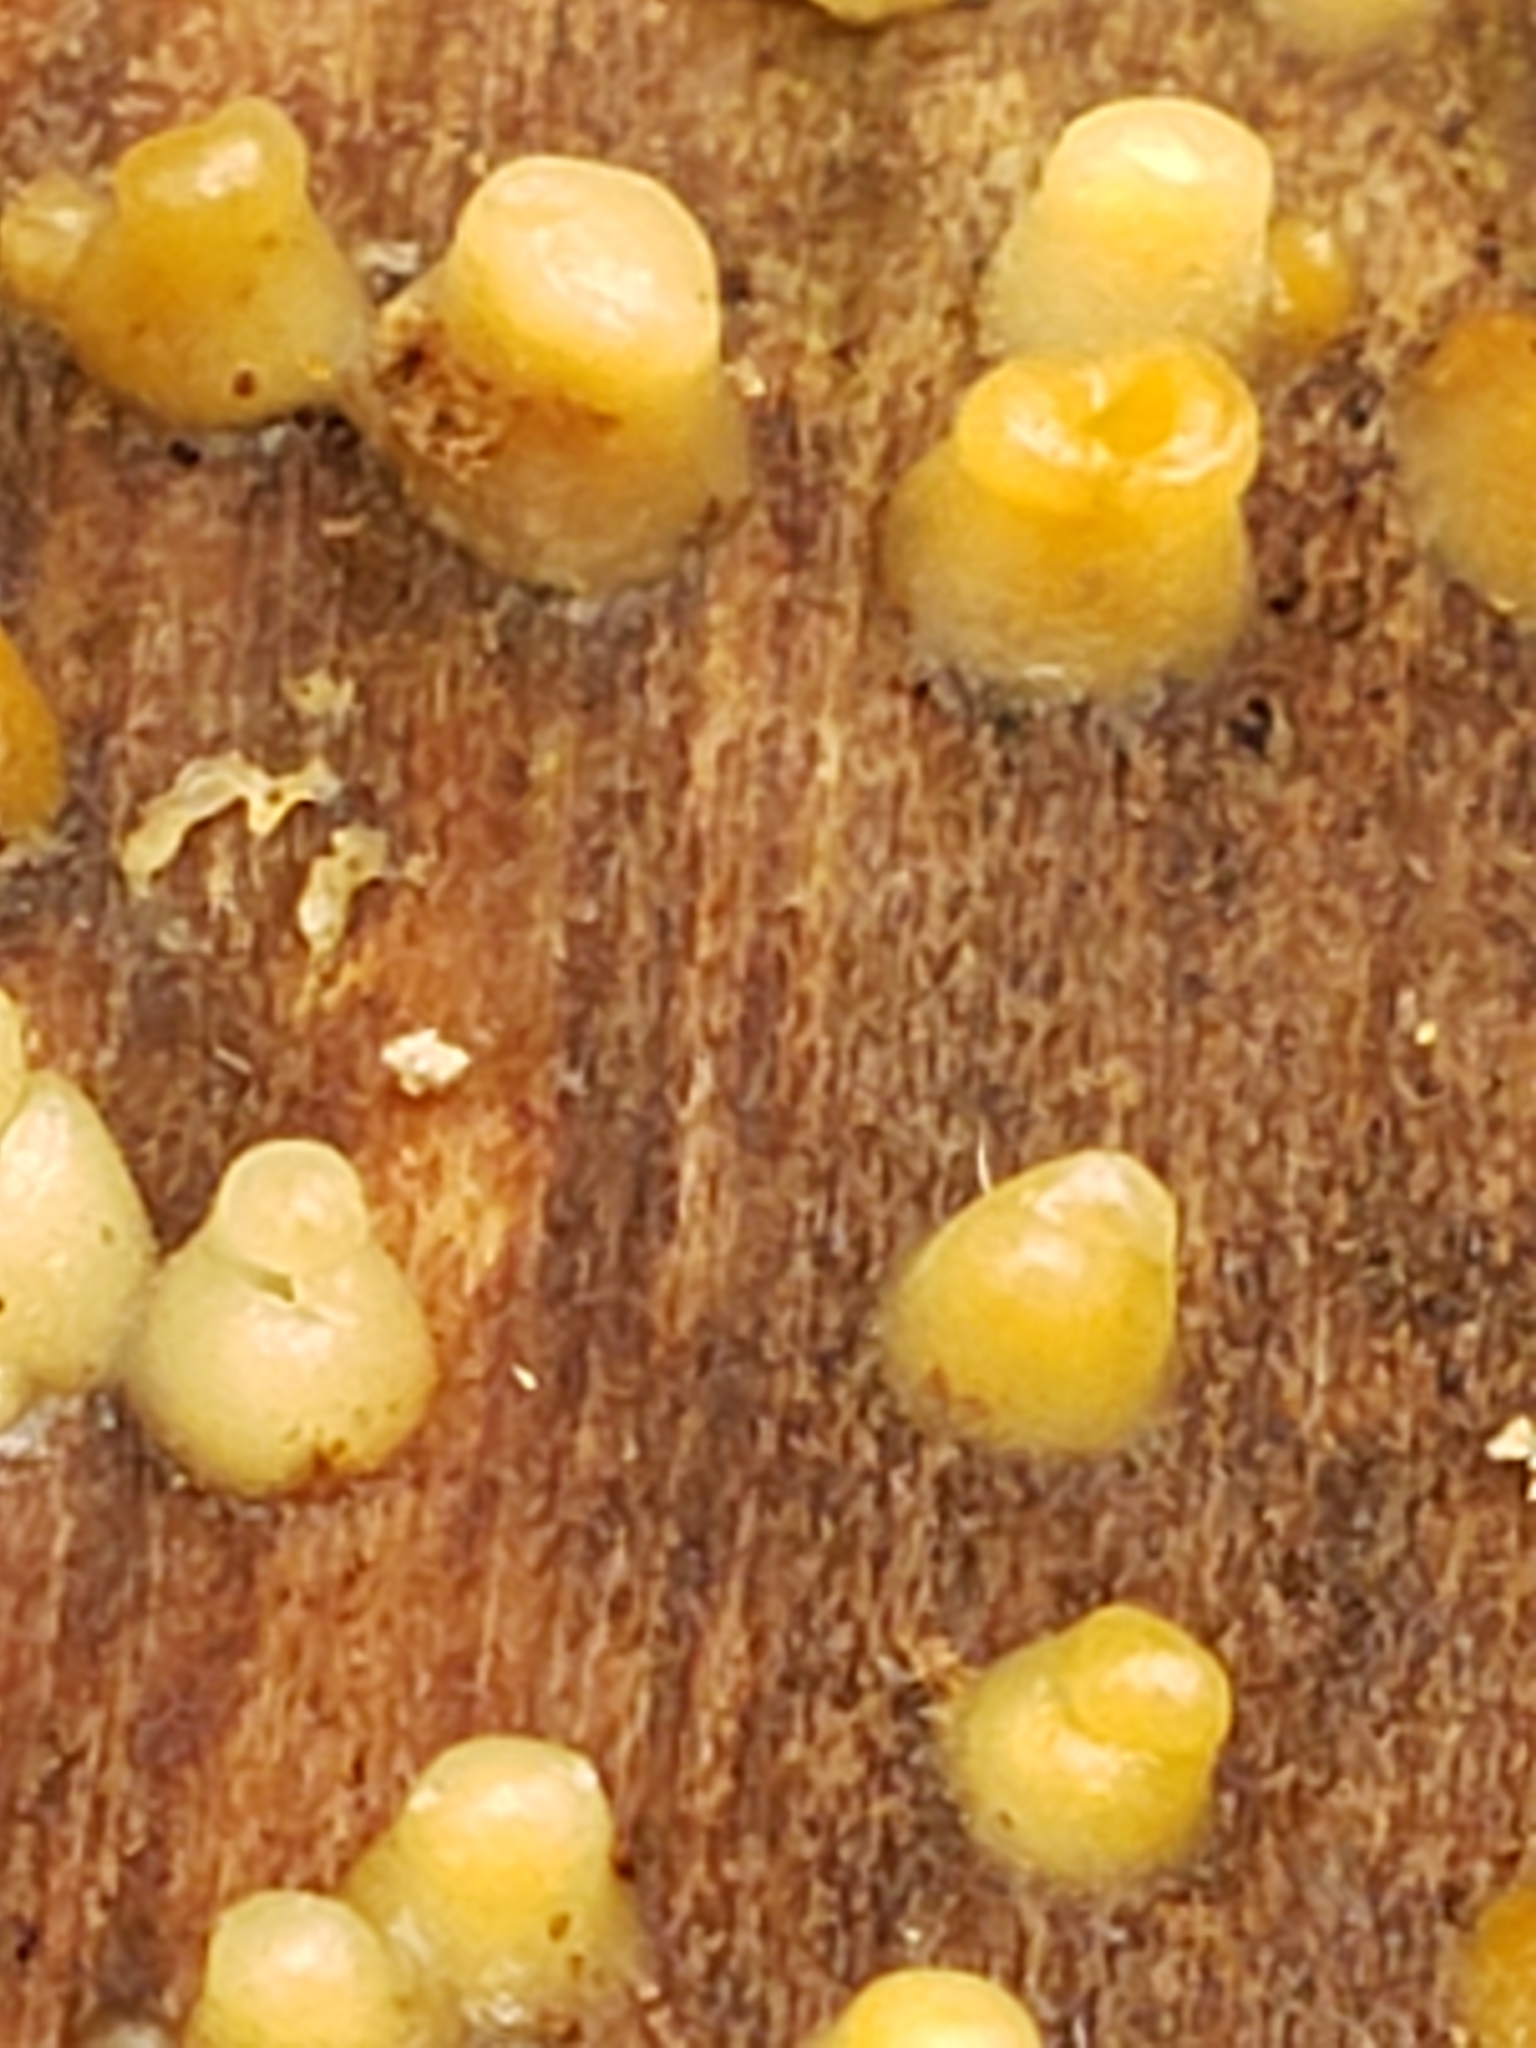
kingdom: Fungi
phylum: Basidiomycota
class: Atractiellomycetes
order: Atractiellales
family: Phleogenaceae
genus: Helicogloea
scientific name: Helicogloea compressa
